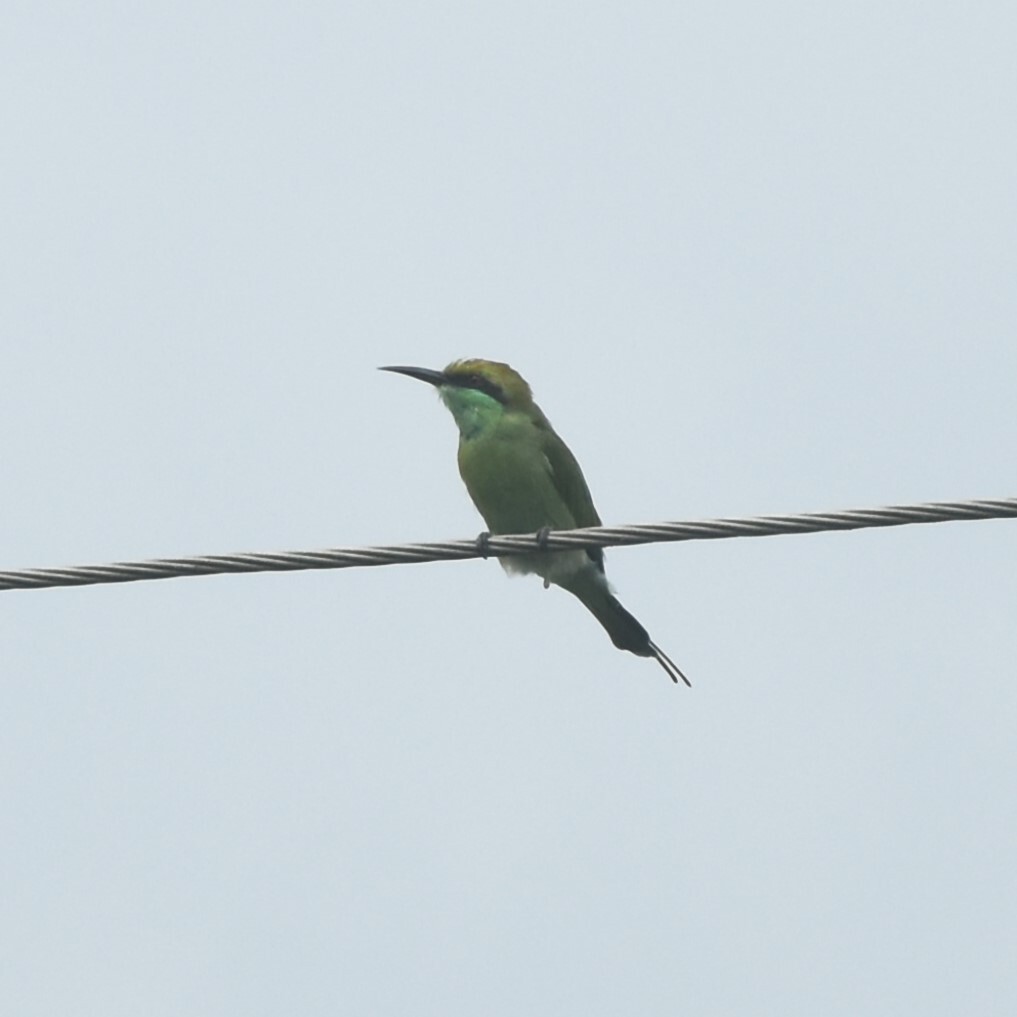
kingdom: Animalia
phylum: Chordata
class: Aves
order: Coraciiformes
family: Meropidae
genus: Merops
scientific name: Merops orientalis
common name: Green bee-eater
